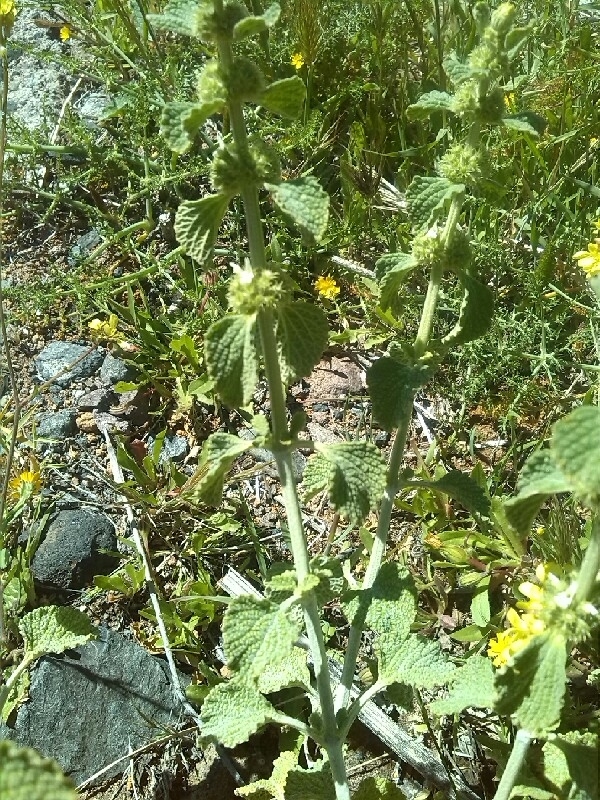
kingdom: Plantae
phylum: Tracheophyta
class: Magnoliopsida
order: Lamiales
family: Lamiaceae
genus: Marrubium
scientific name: Marrubium vulgare
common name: Horehound
